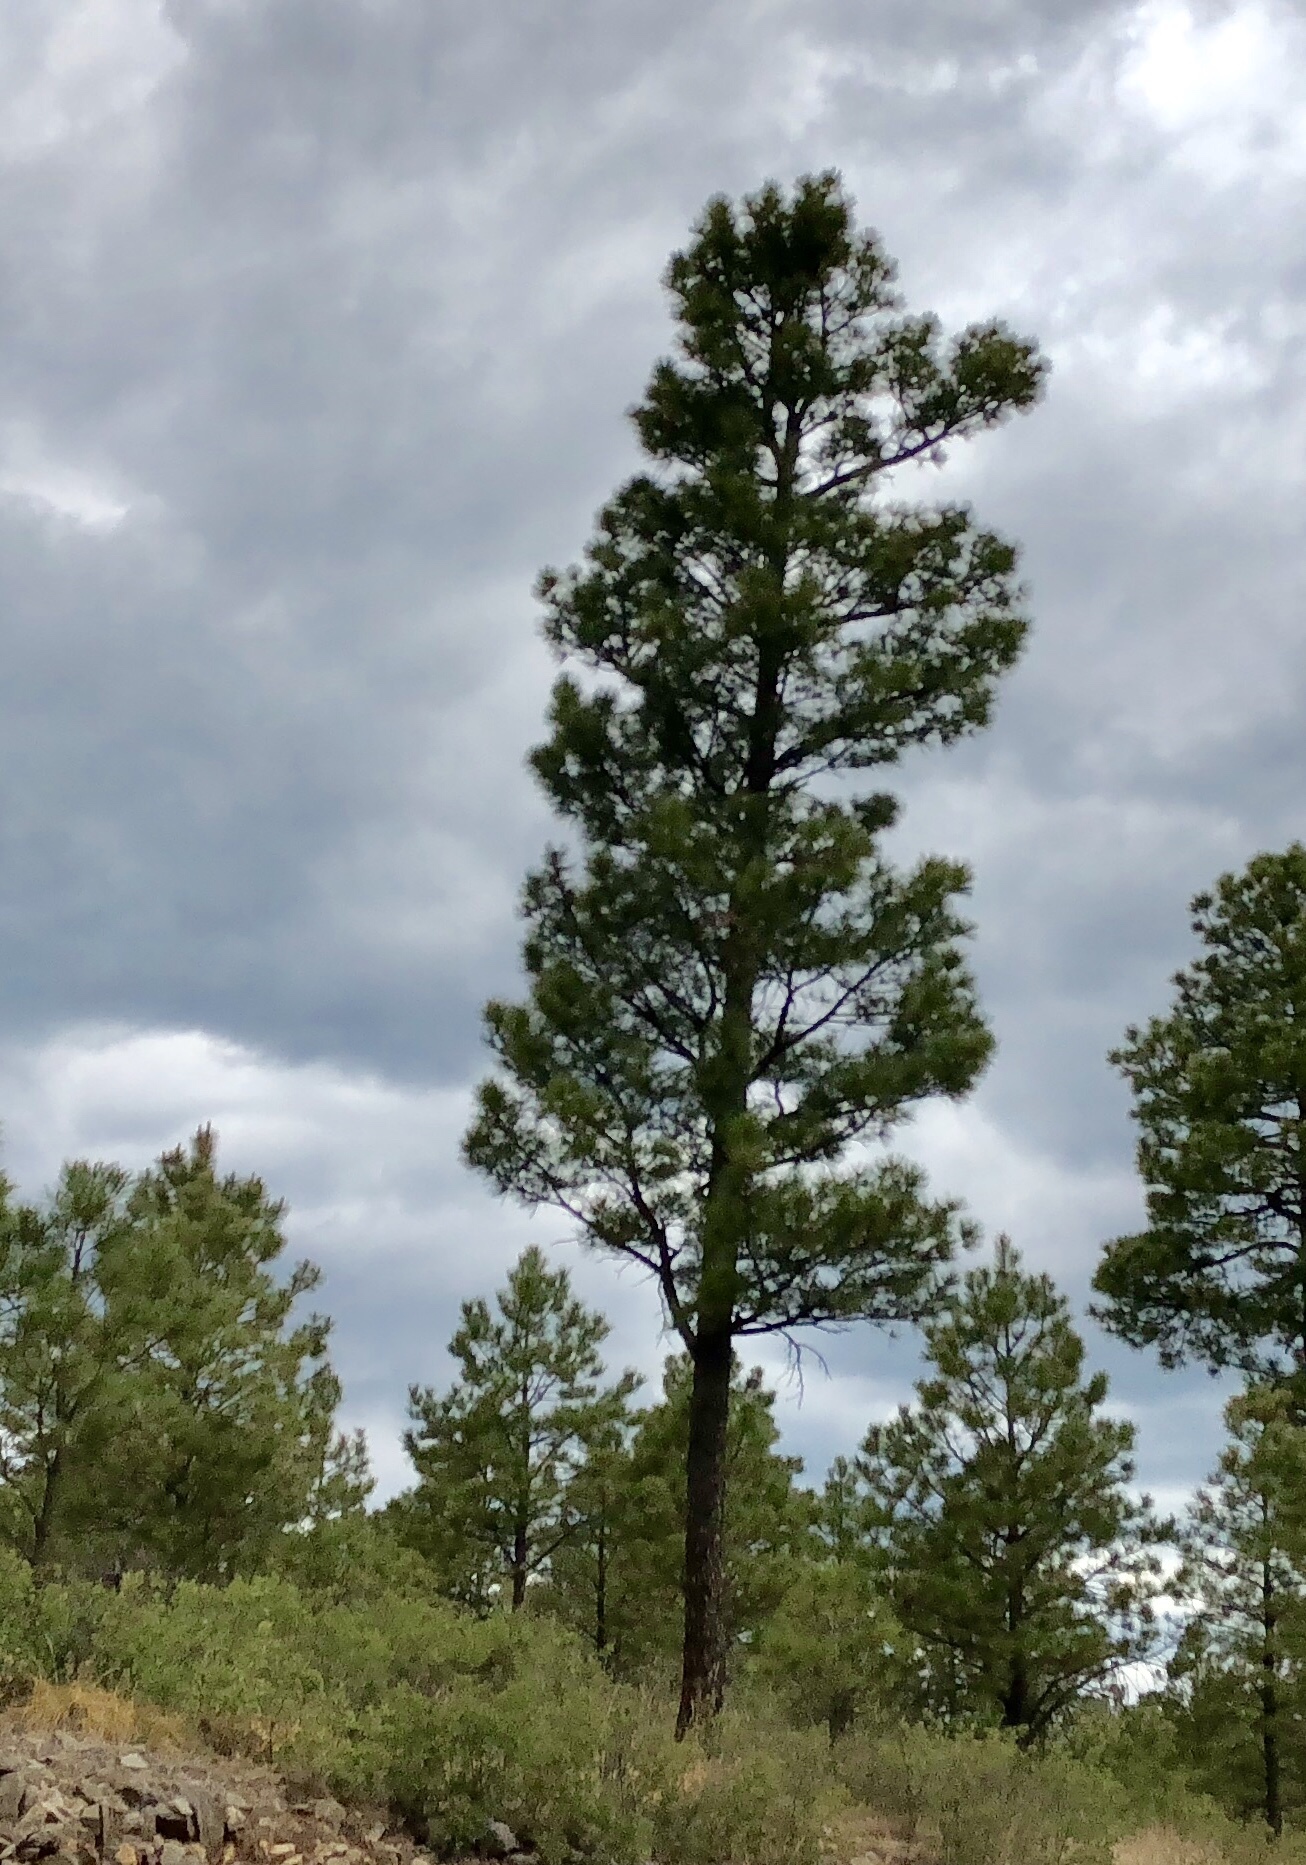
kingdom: Plantae
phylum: Tracheophyta
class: Pinopsida
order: Pinales
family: Pinaceae
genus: Pinus
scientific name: Pinus ponderosa
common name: Western yellow-pine
